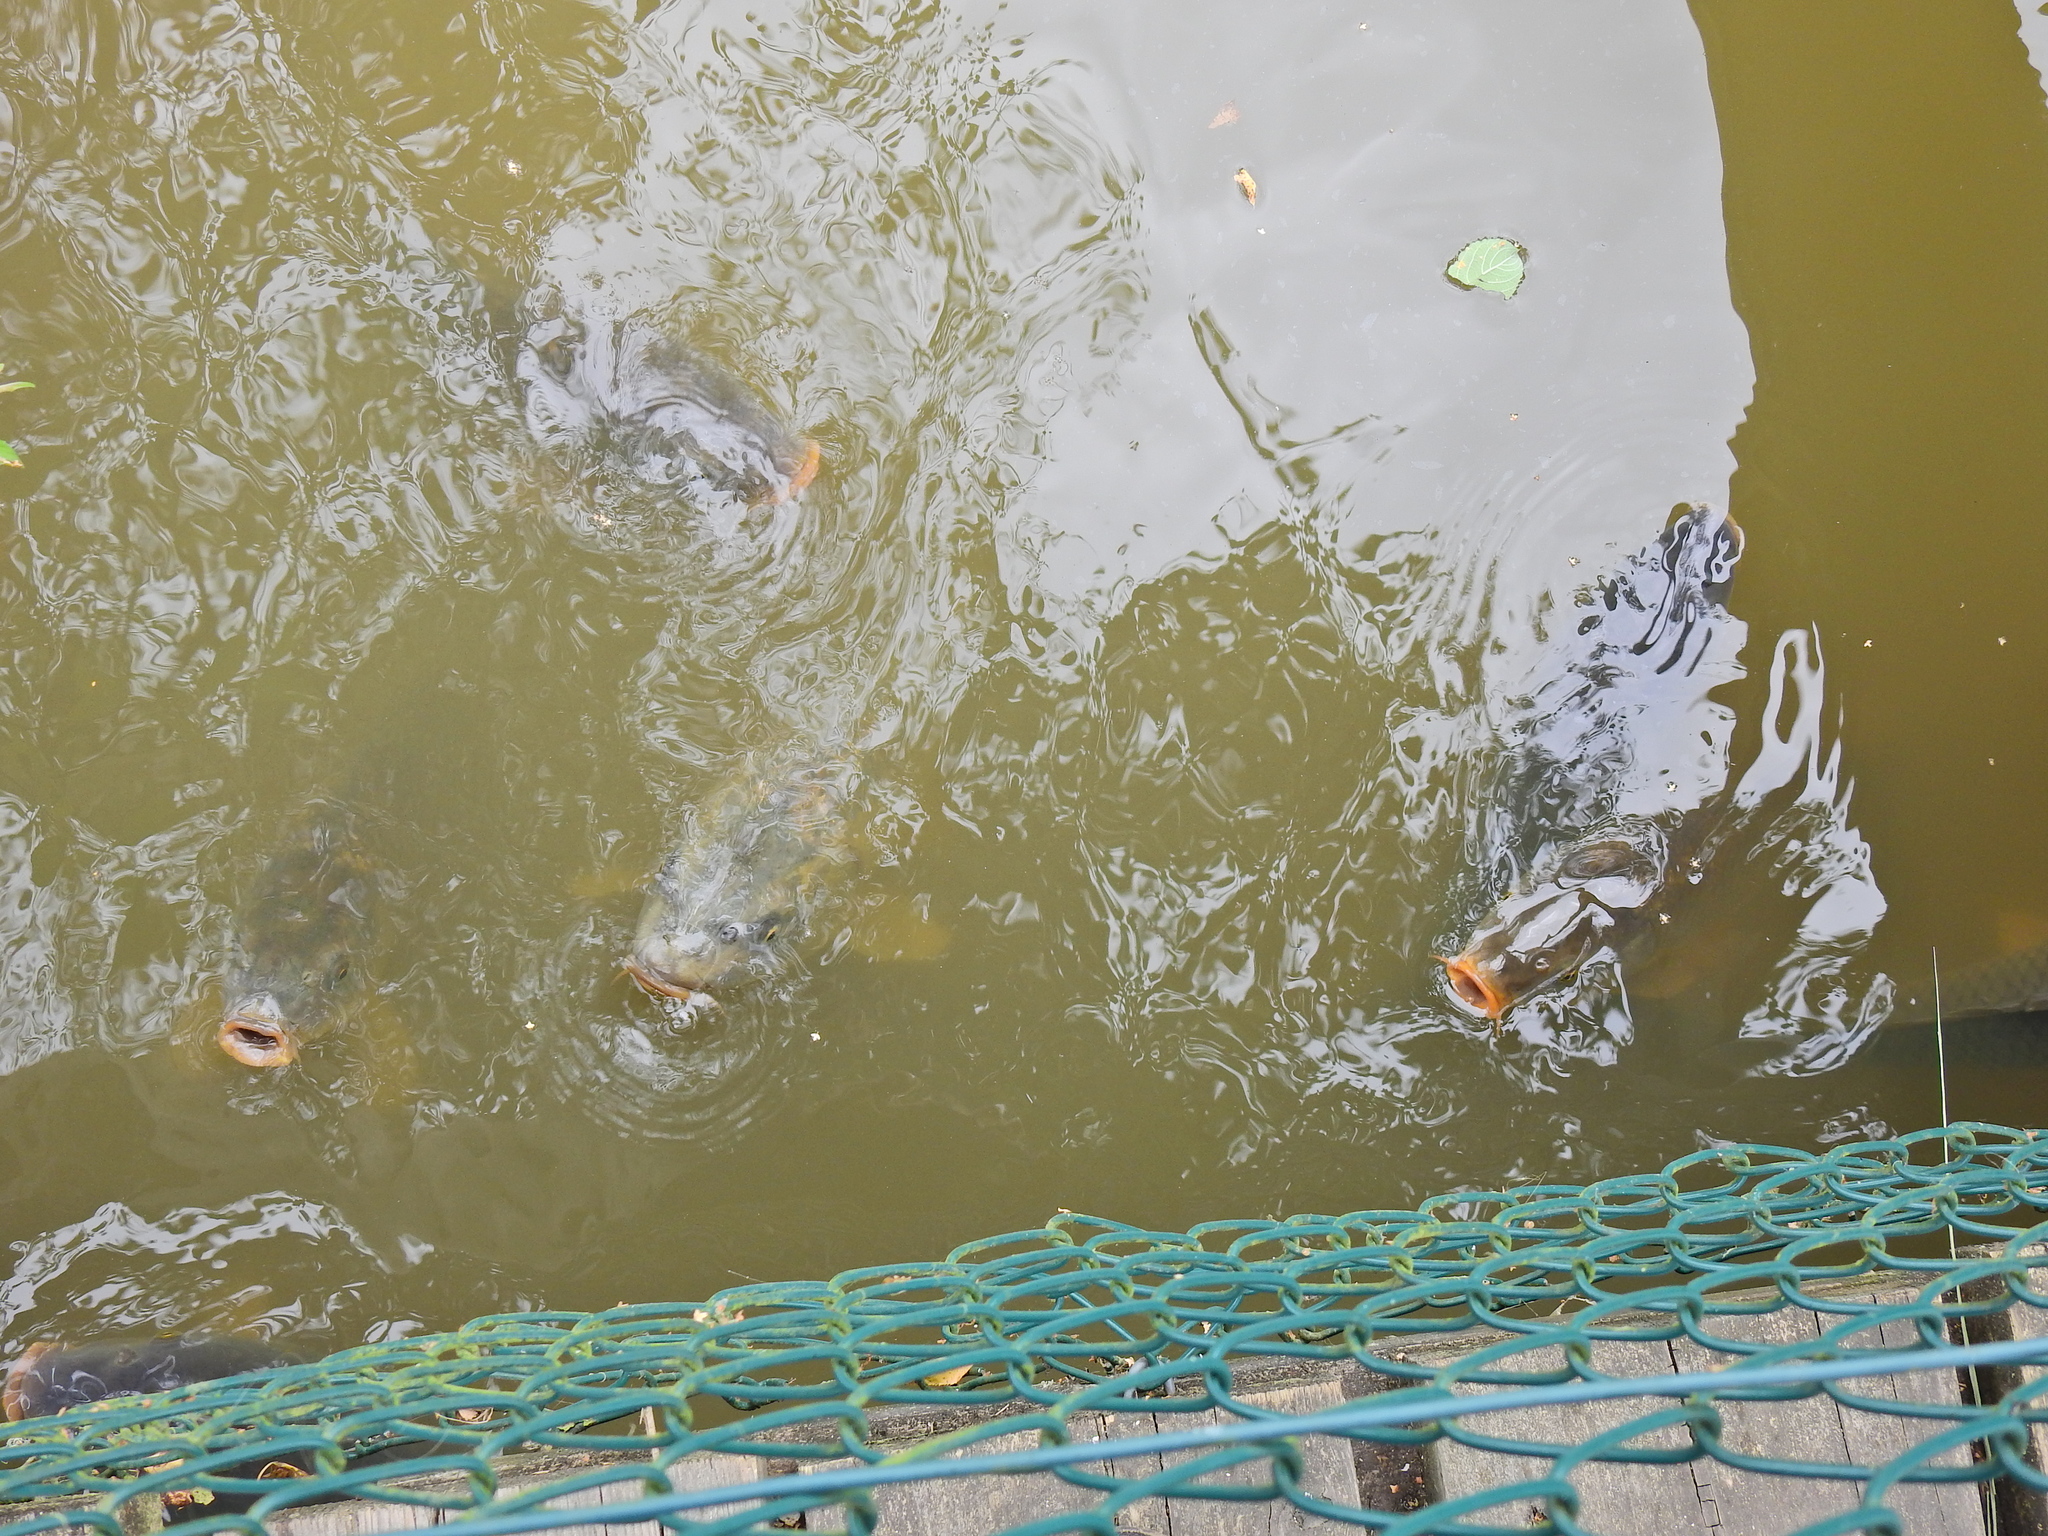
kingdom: Animalia
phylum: Chordata
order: Cypriniformes
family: Cyprinidae
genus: Cyprinus
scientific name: Cyprinus carpio
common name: Common carp
